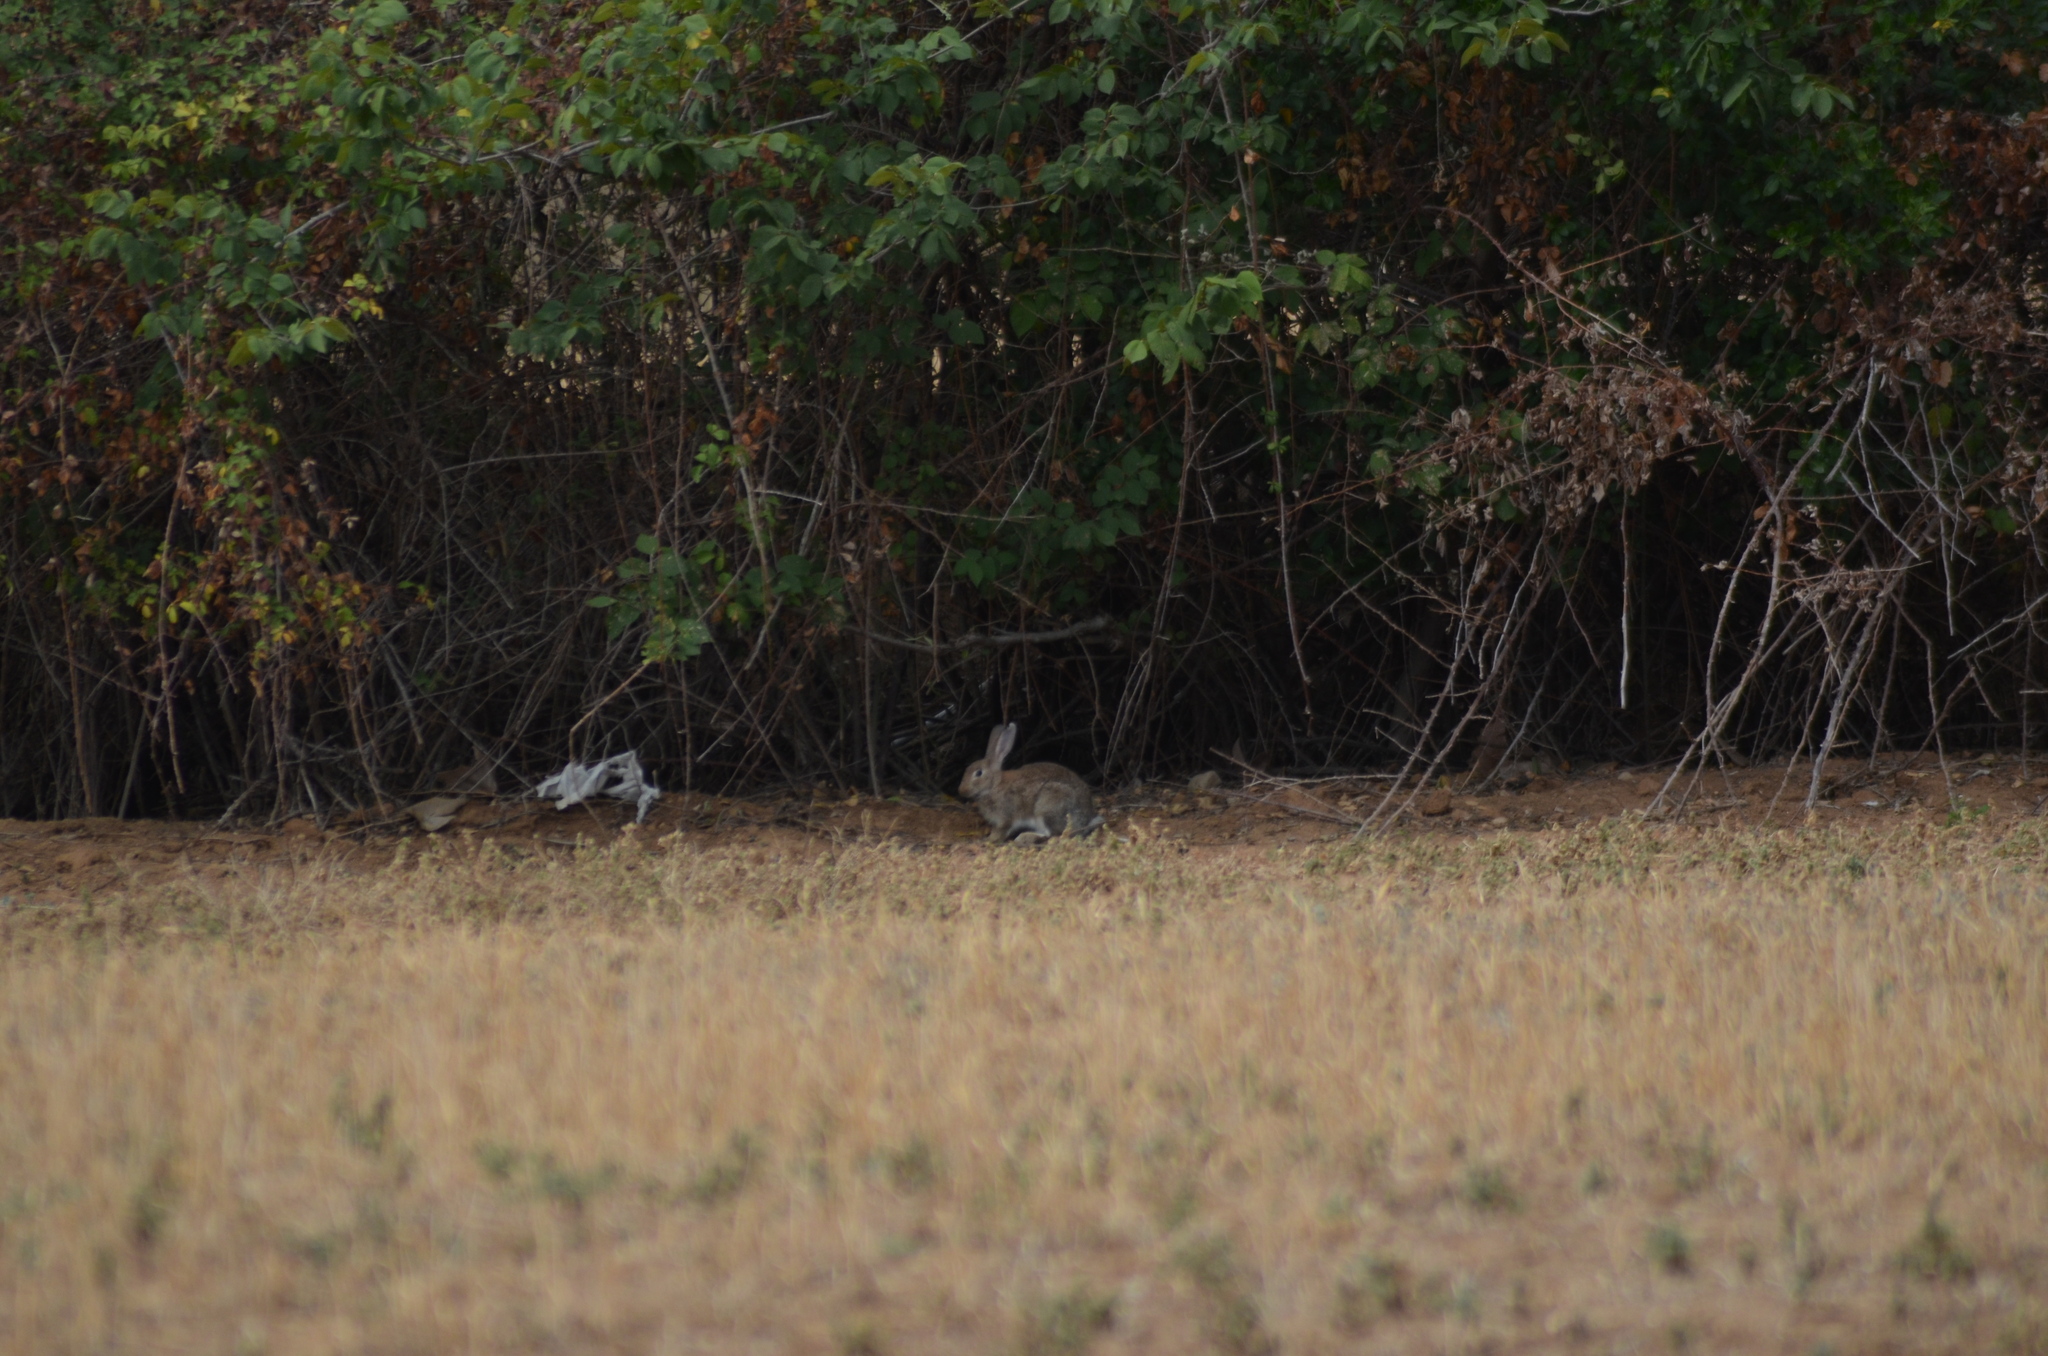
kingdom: Animalia
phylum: Chordata
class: Mammalia
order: Lagomorpha
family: Leporidae
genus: Oryctolagus
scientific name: Oryctolagus cuniculus
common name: European rabbit
